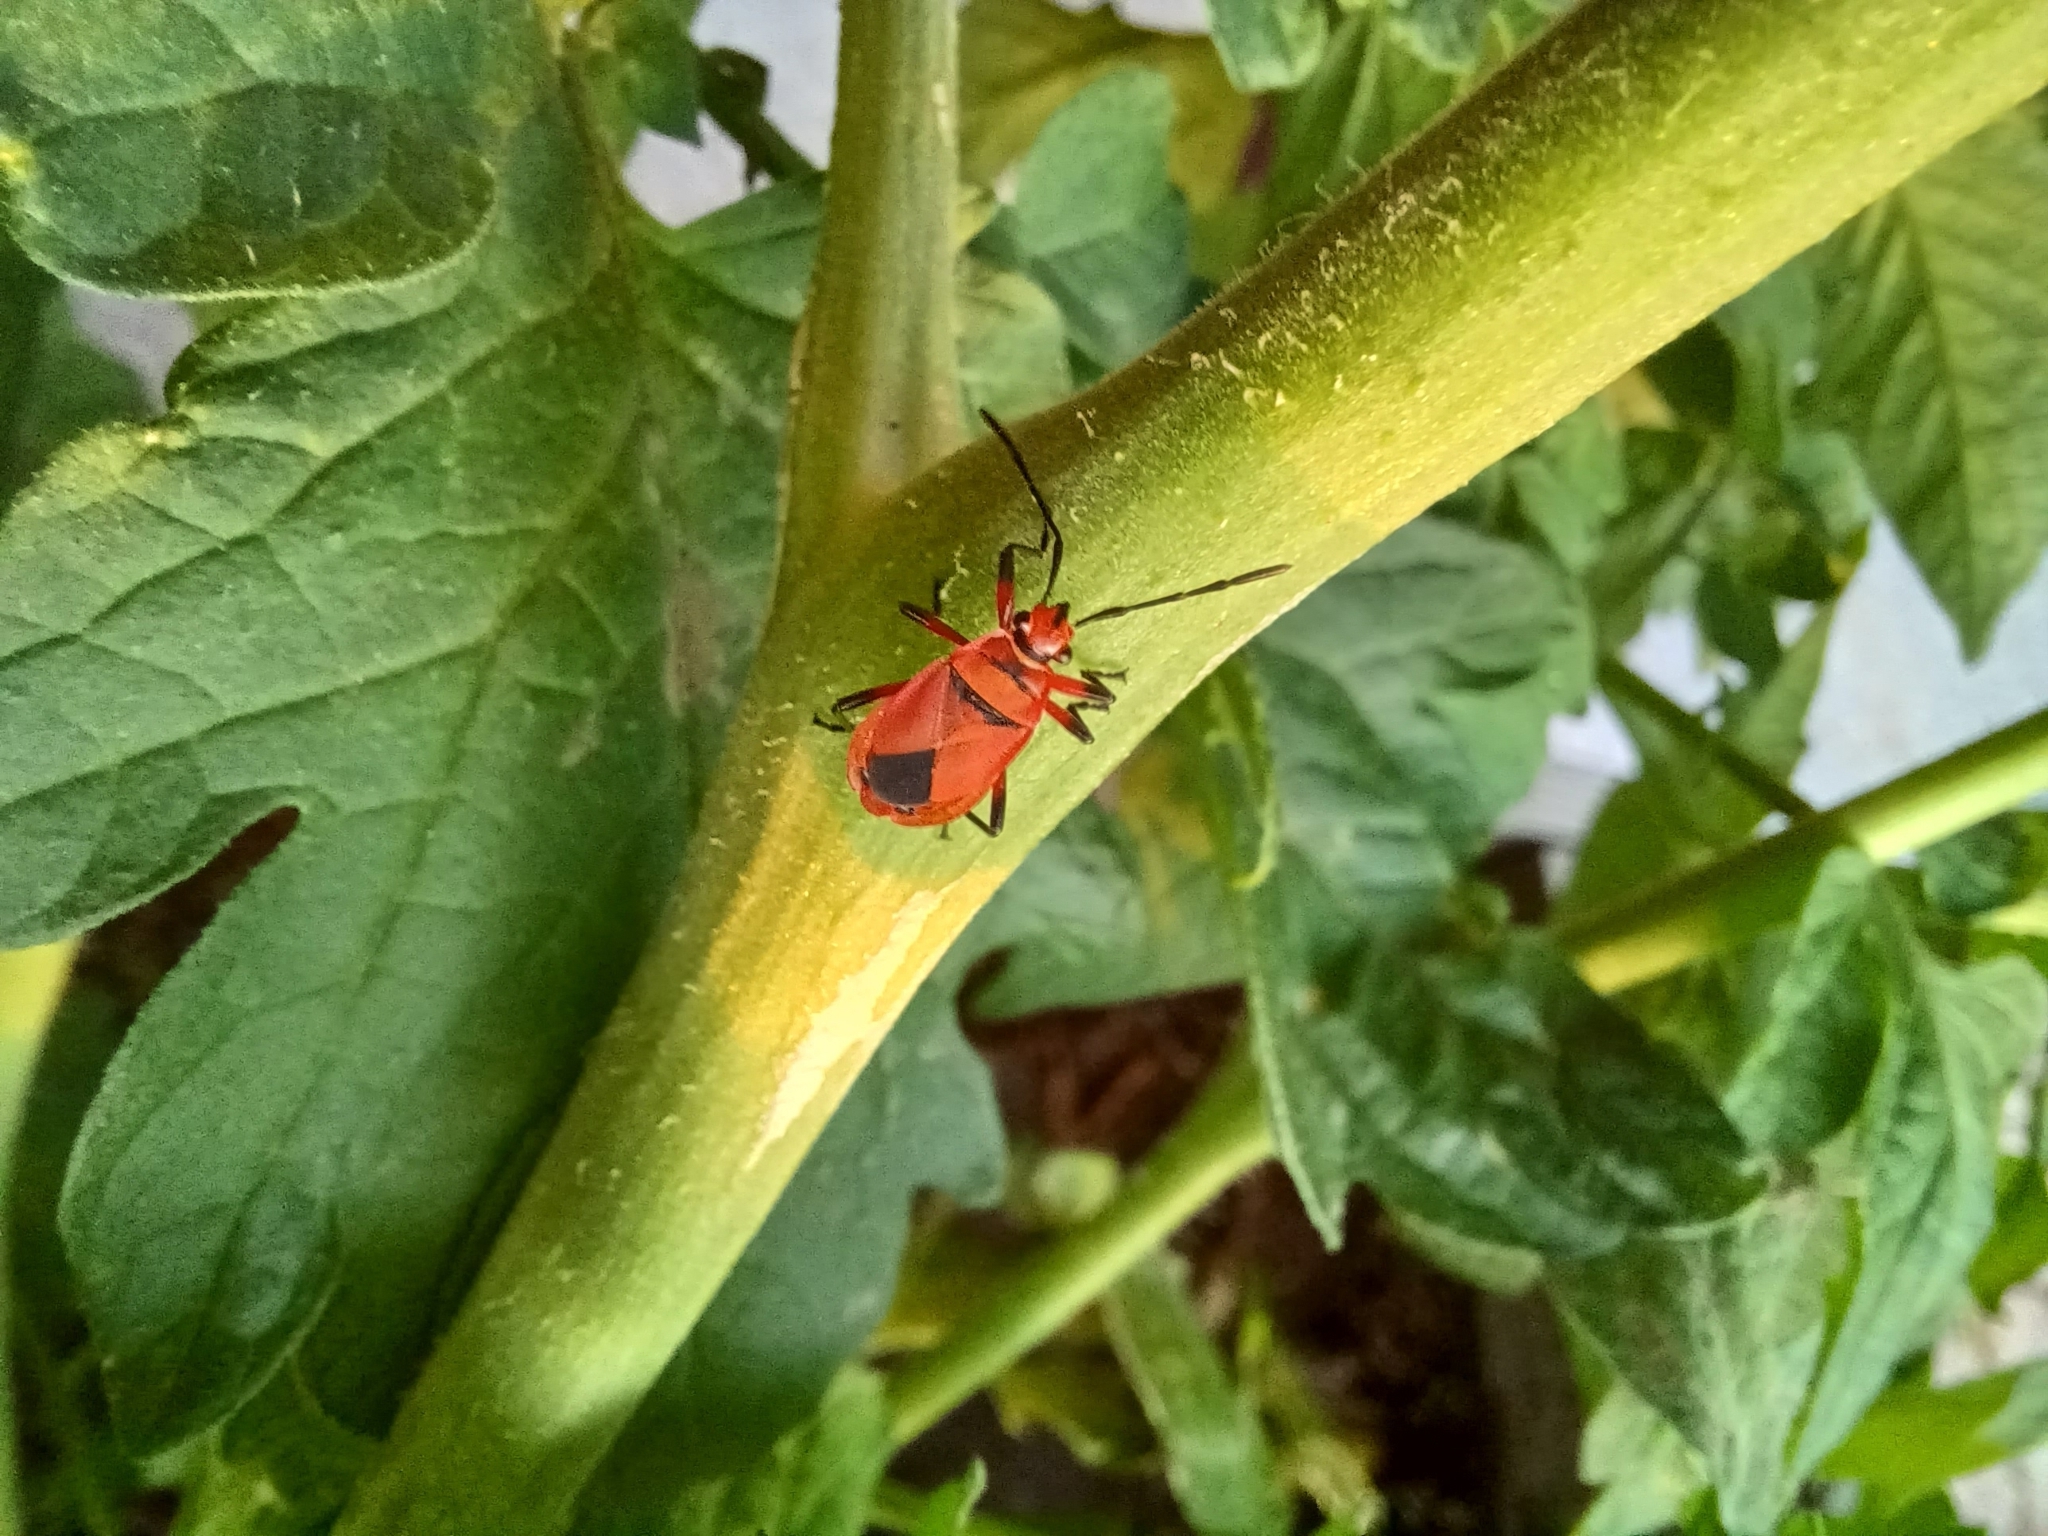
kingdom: Animalia
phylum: Arthropoda
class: Insecta
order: Hemiptera
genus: Cenaeus
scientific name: Cenaeus
